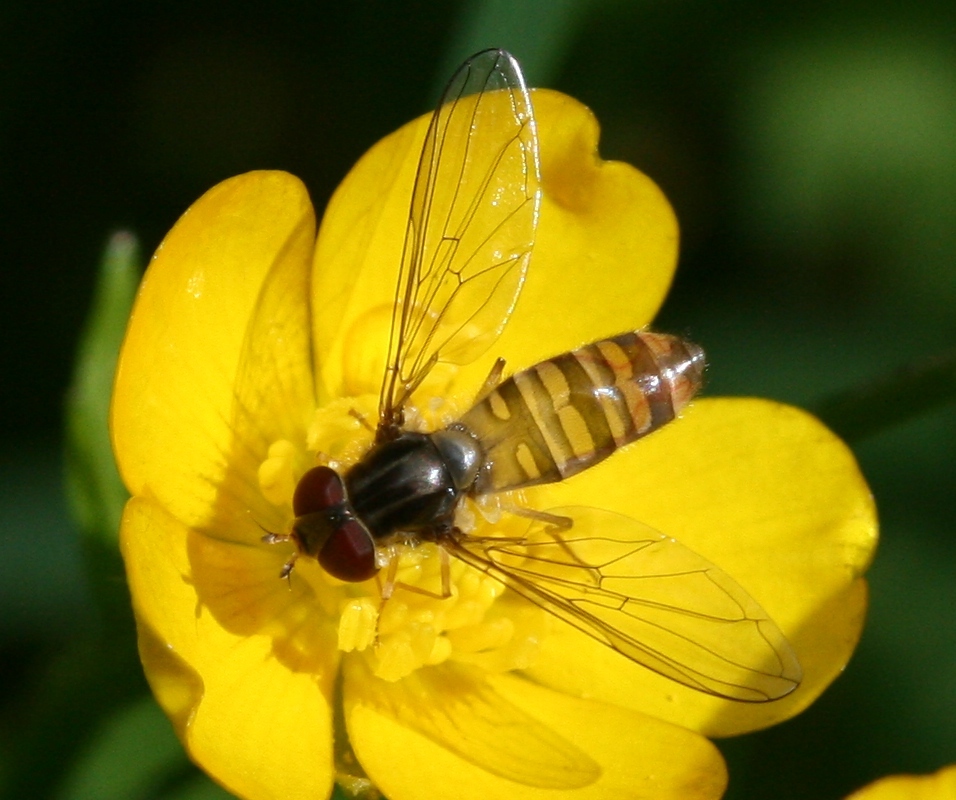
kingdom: Animalia
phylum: Arthropoda
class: Insecta
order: Diptera
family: Syrphidae
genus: Episyrphus
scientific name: Episyrphus balteatus
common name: Marmalade hoverfly
